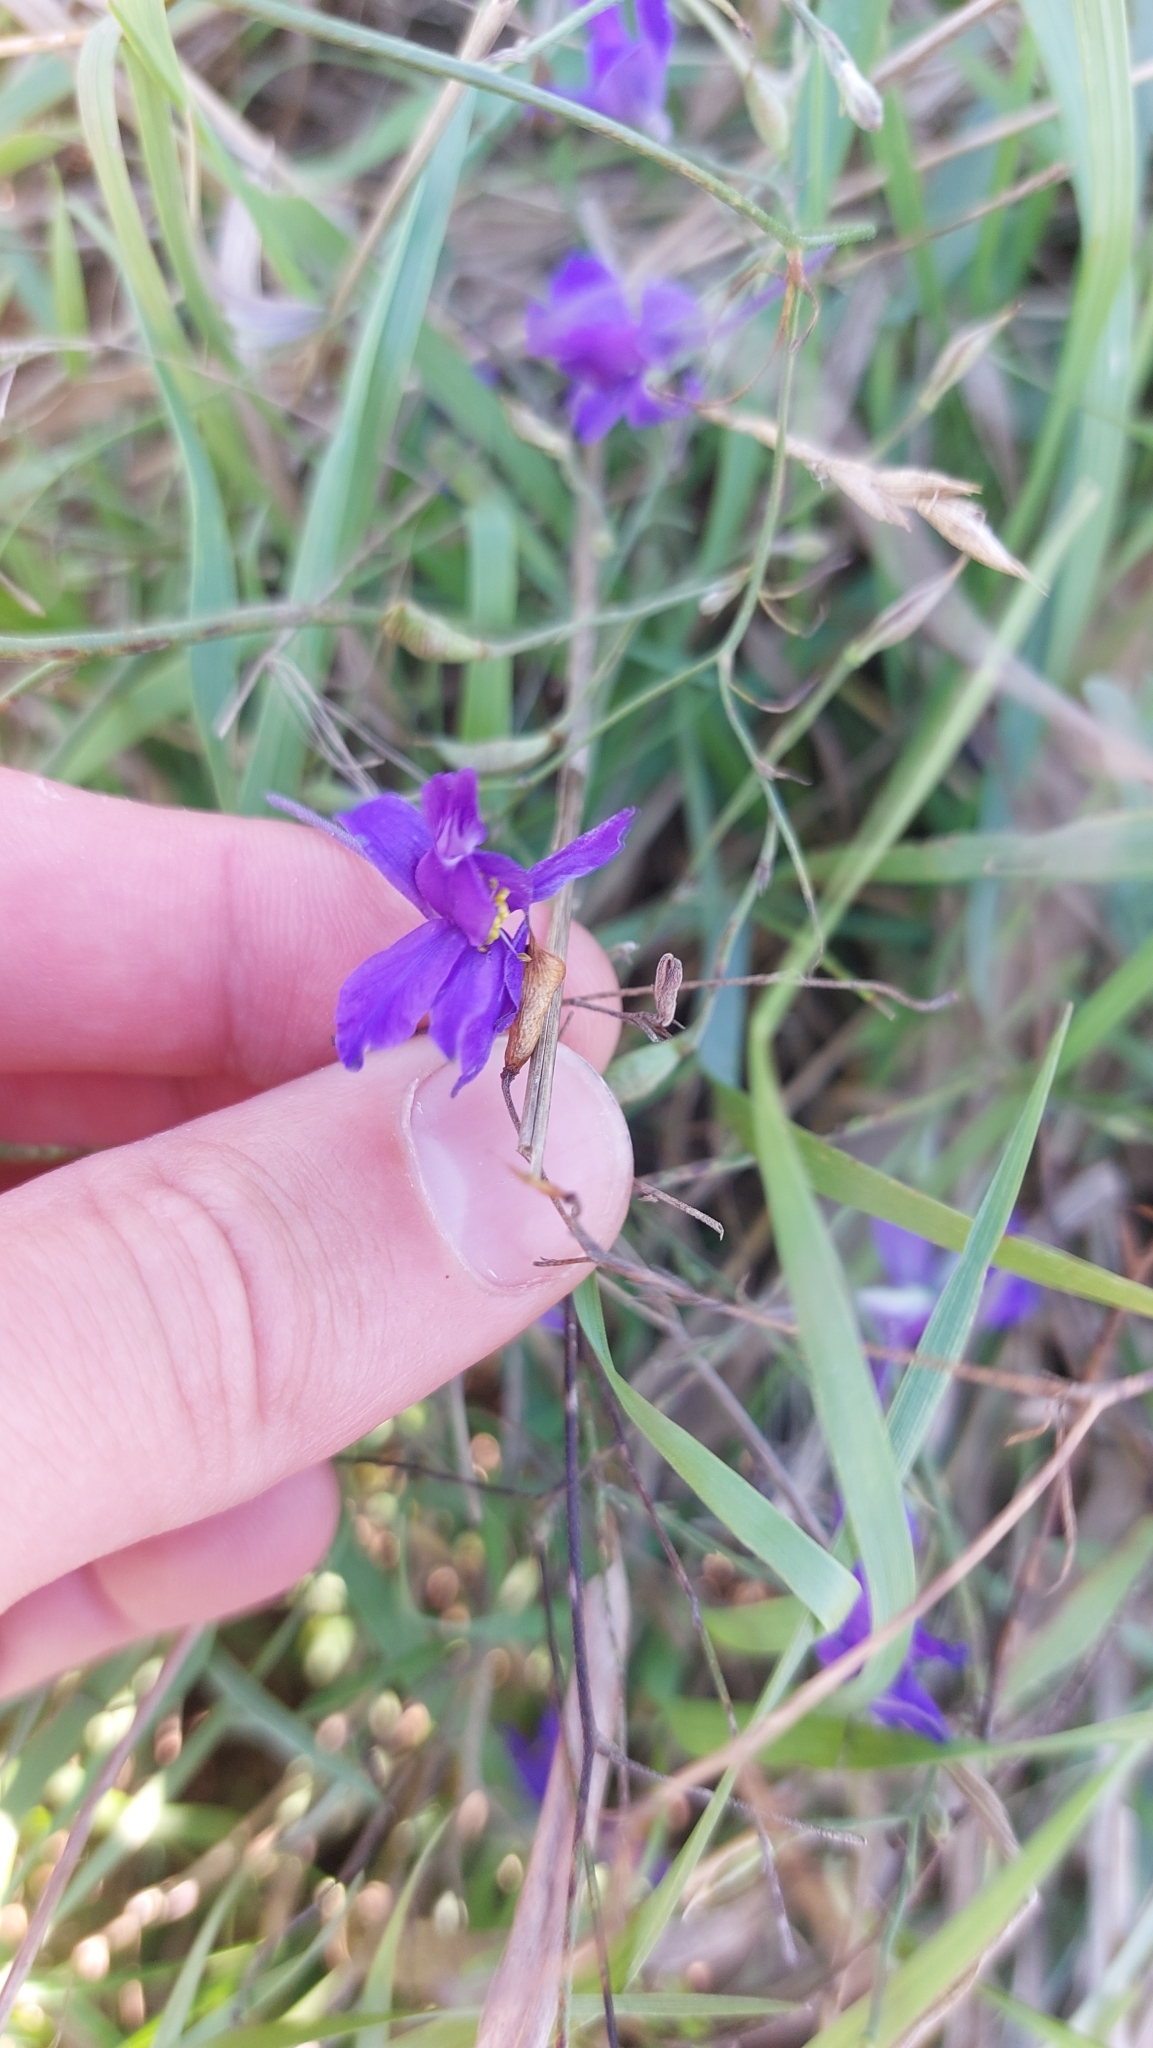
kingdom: Plantae
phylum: Tracheophyta
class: Magnoliopsida
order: Ranunculales
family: Ranunculaceae
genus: Delphinium
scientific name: Delphinium consolida
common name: Branching larkspur
